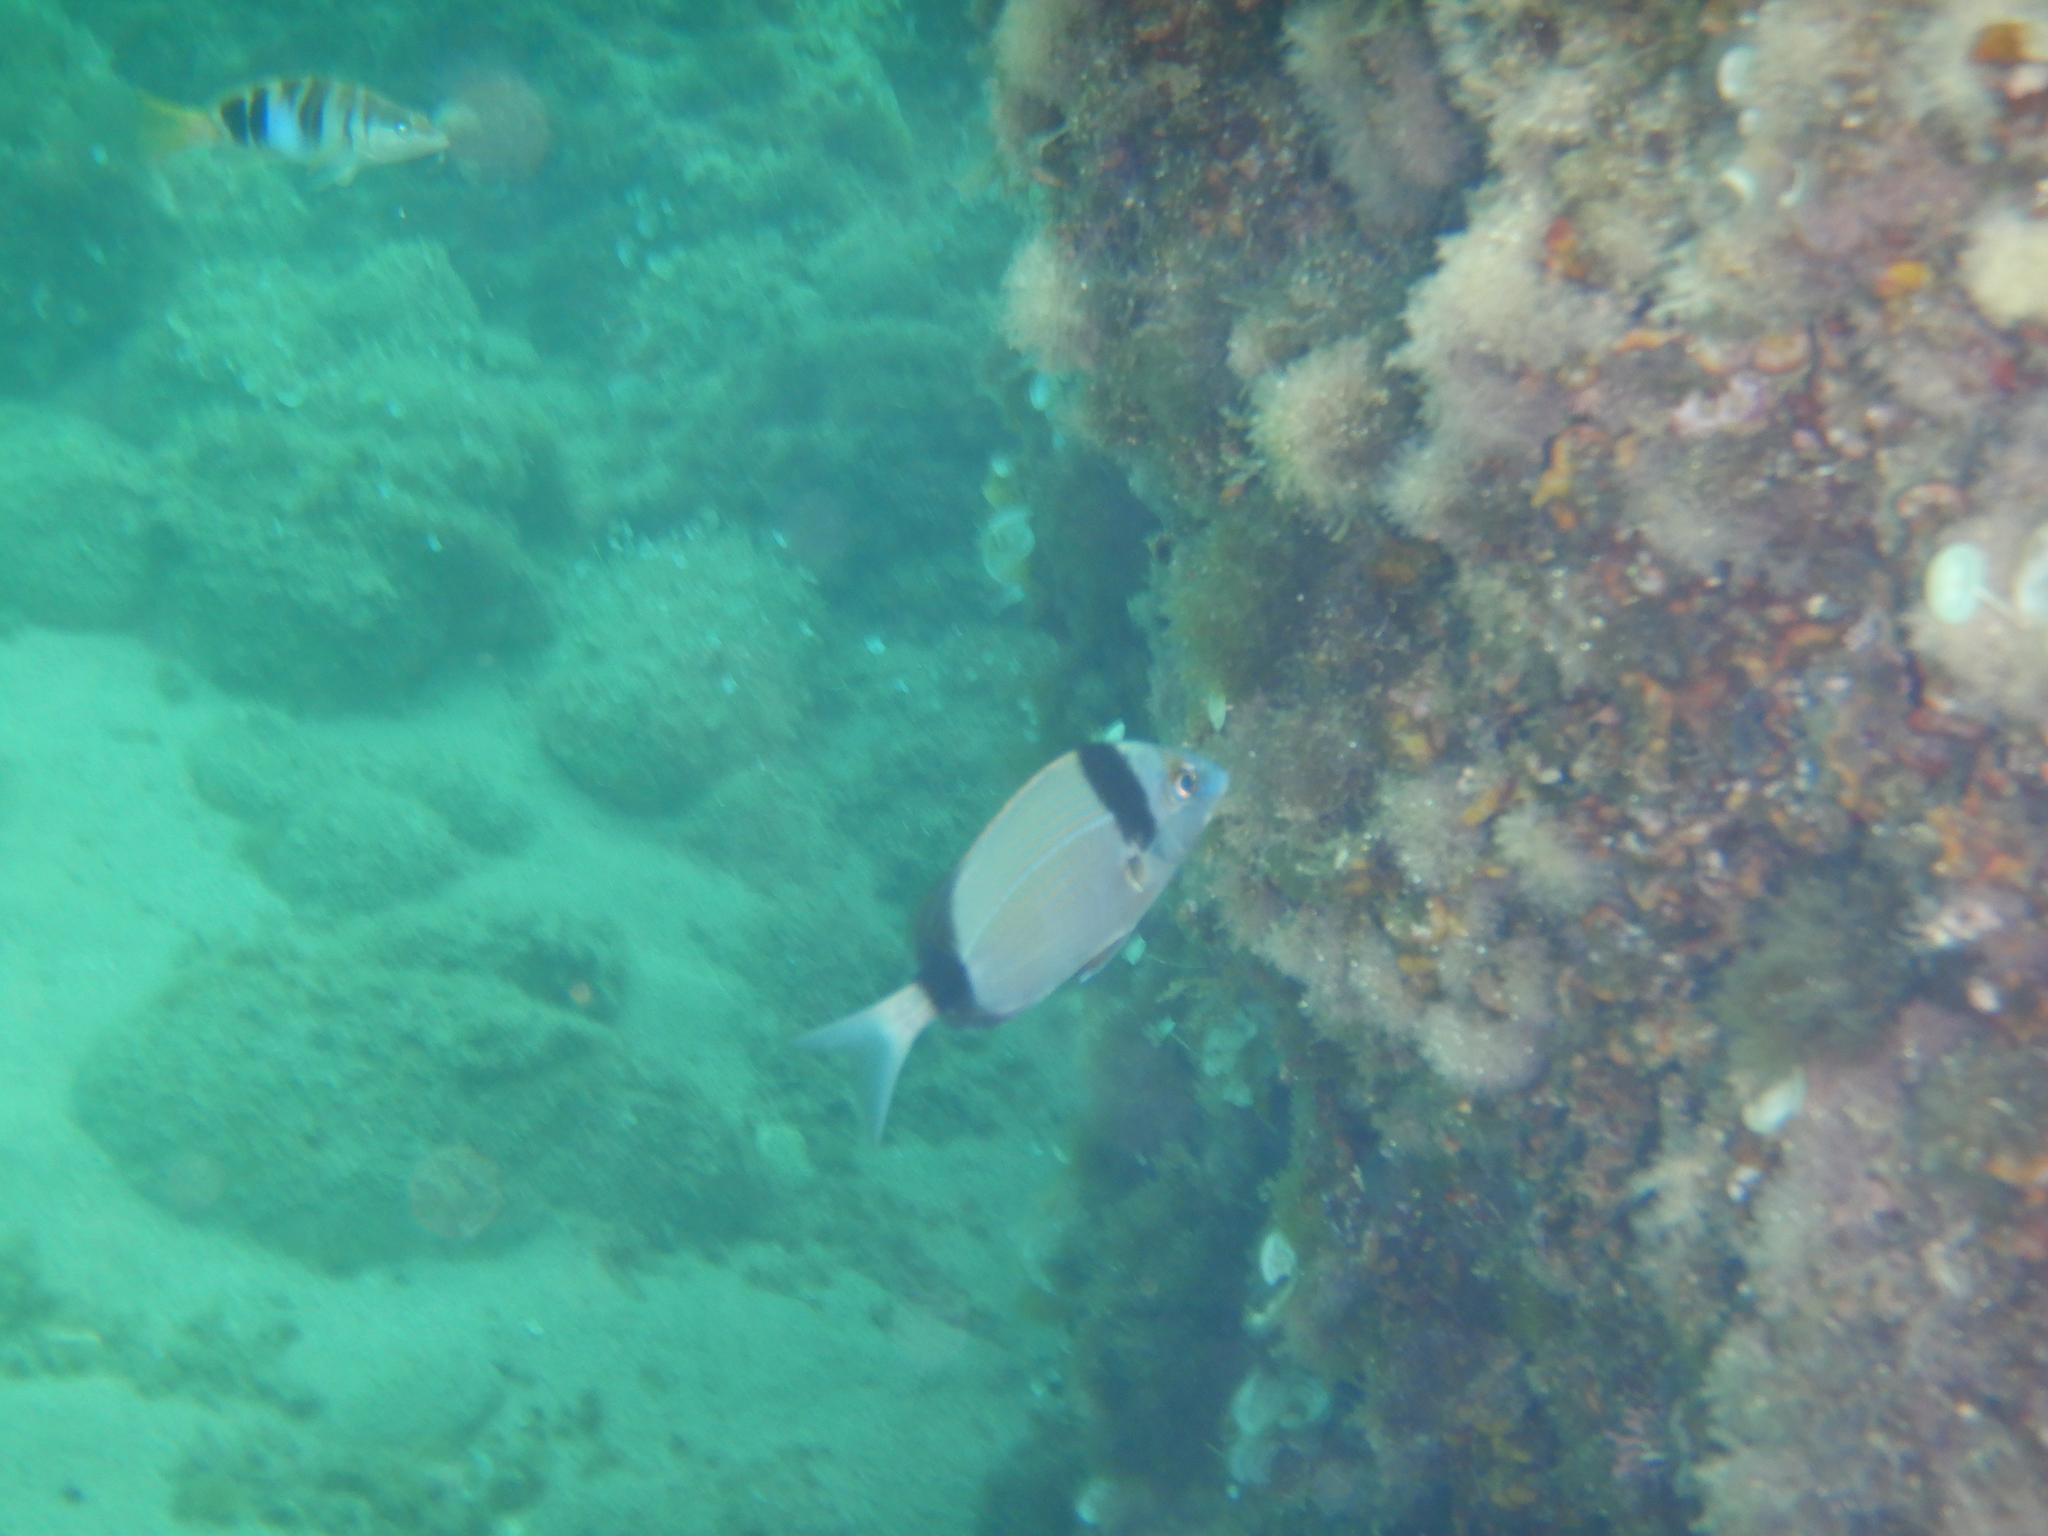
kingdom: Animalia
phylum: Chordata
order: Perciformes
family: Sparidae
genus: Diplodus
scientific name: Diplodus vulgaris
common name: Common two-banded seabream
